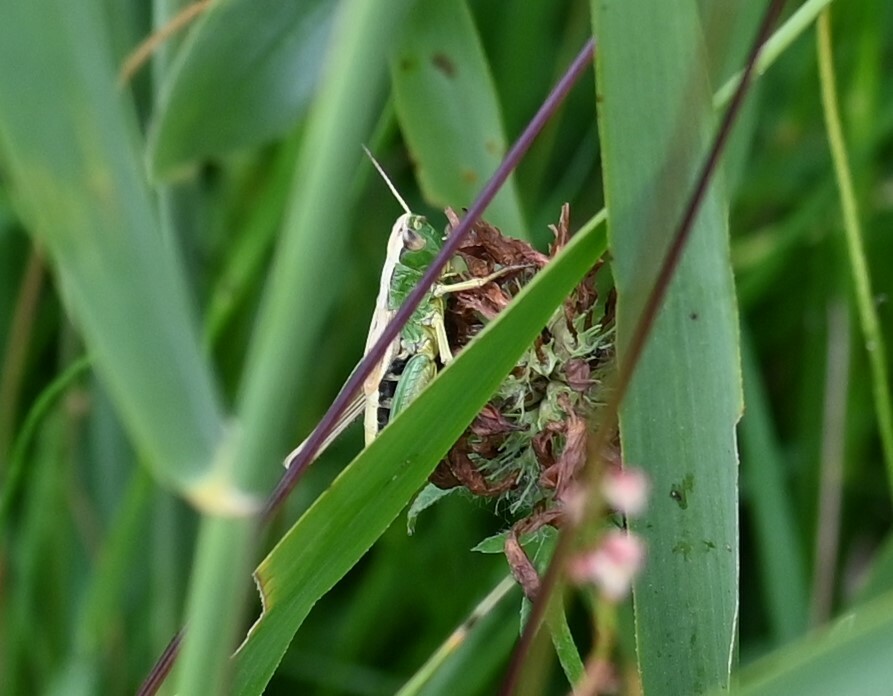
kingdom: Animalia
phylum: Arthropoda
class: Insecta
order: Orthoptera
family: Acrididae
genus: Pseudochorthippus
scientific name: Pseudochorthippus parallelus
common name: Meadow grasshopper
